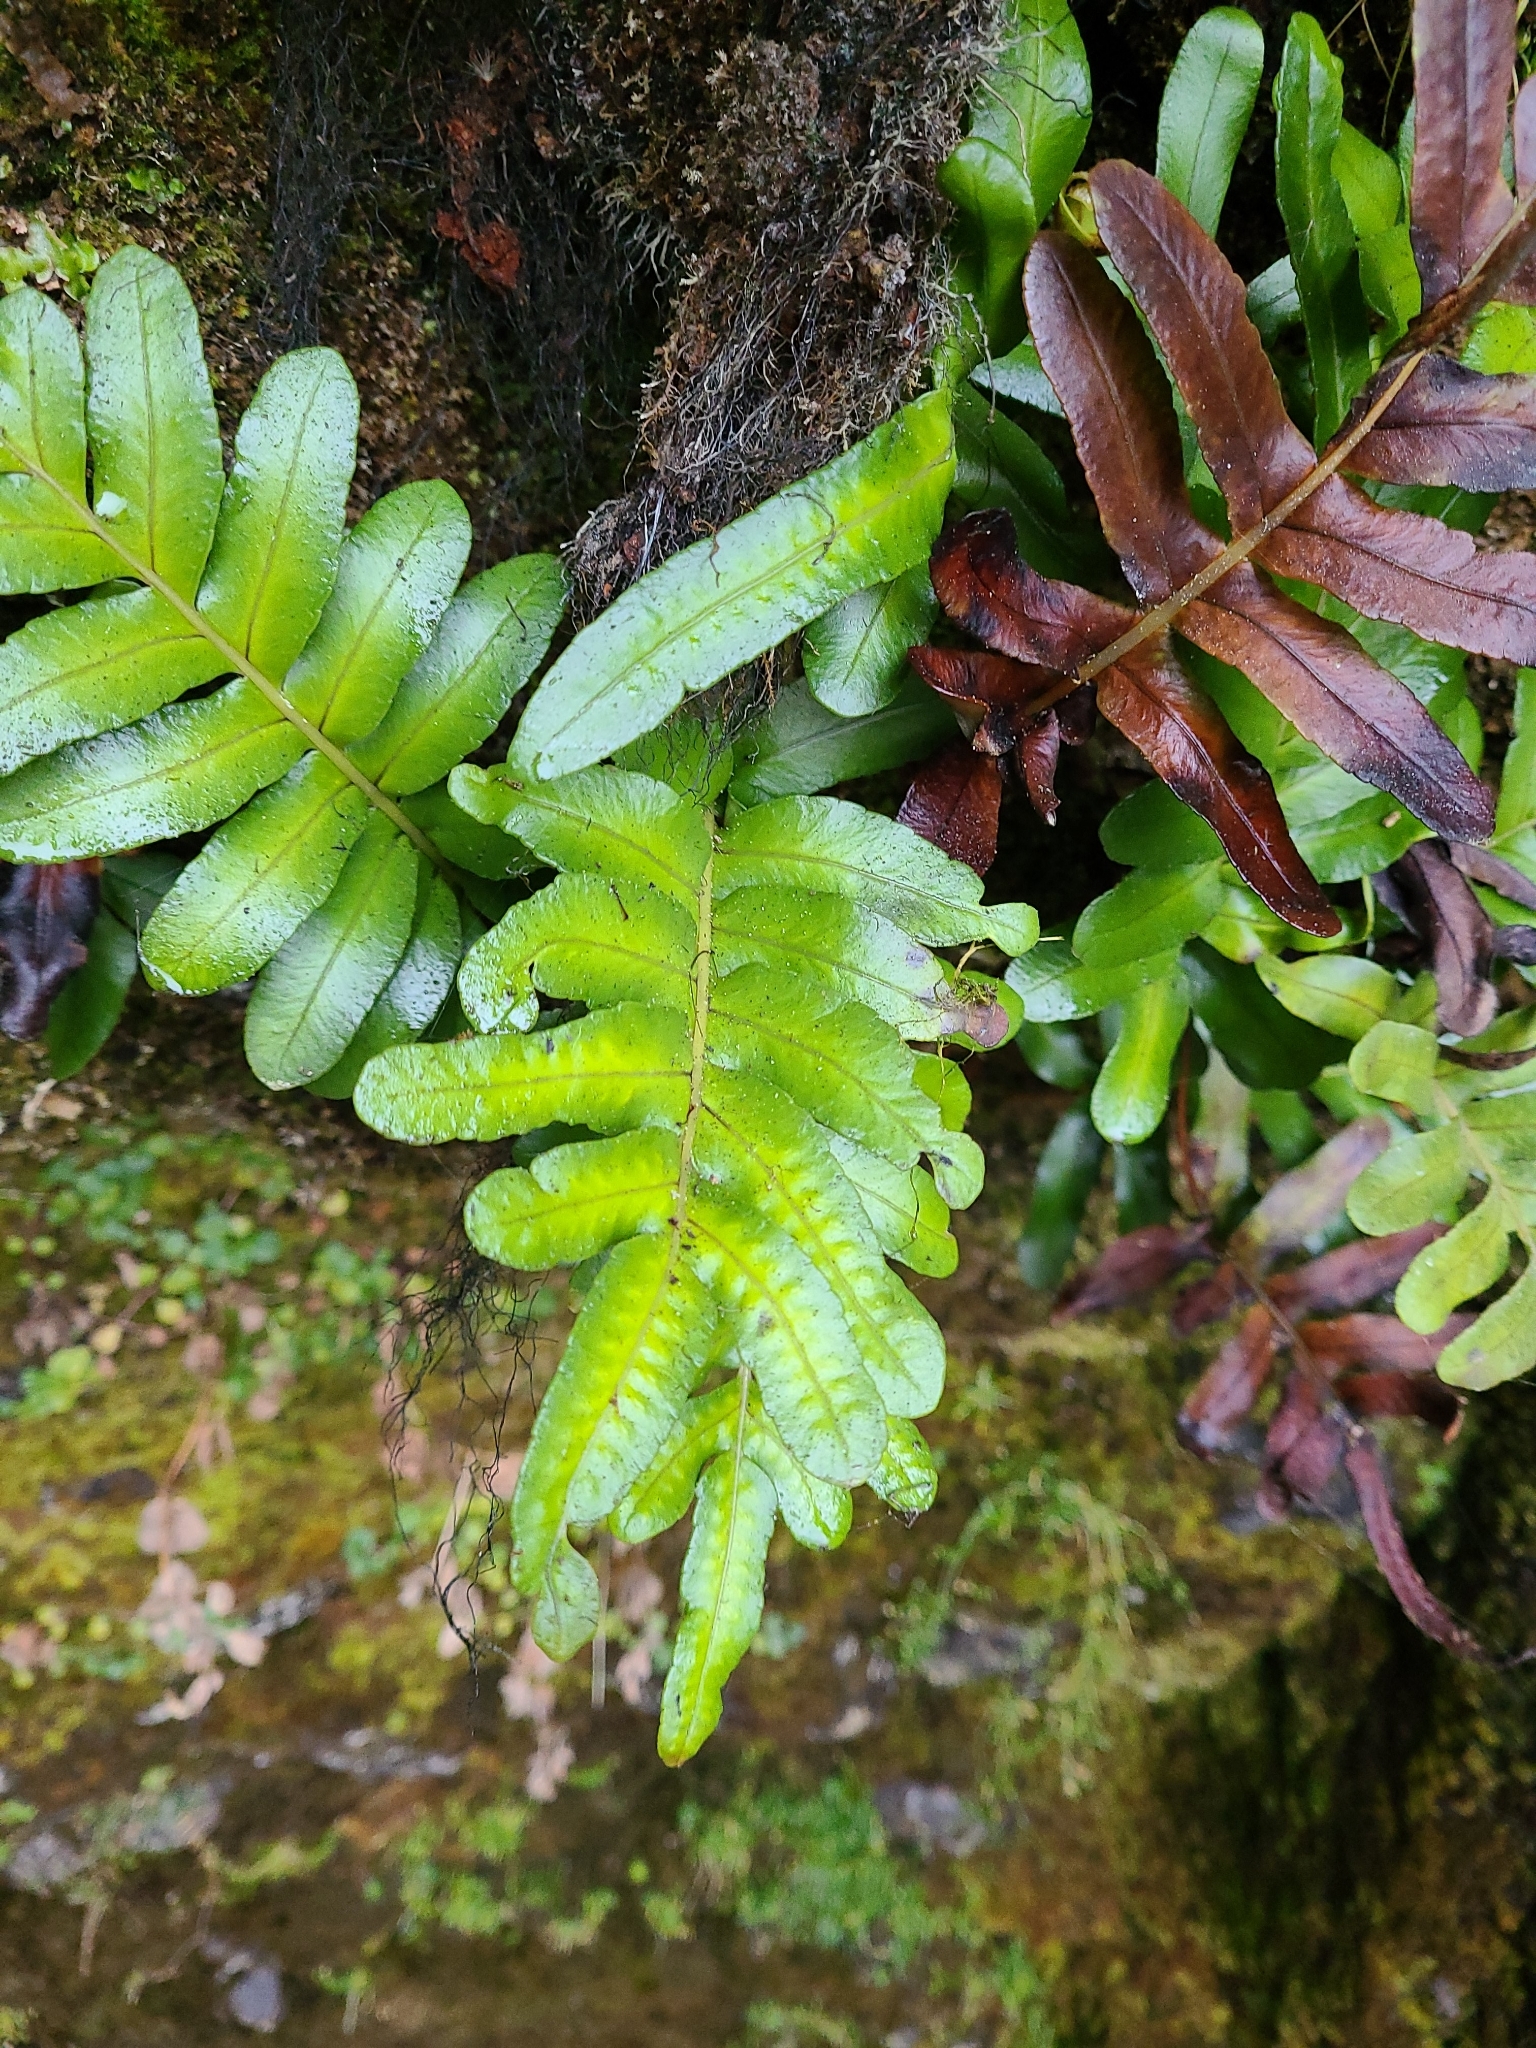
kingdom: Plantae
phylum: Tracheophyta
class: Polypodiopsida
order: Polypodiales
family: Polypodiaceae
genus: Polypodium
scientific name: Polypodium scouleri
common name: Scouler's polypody
